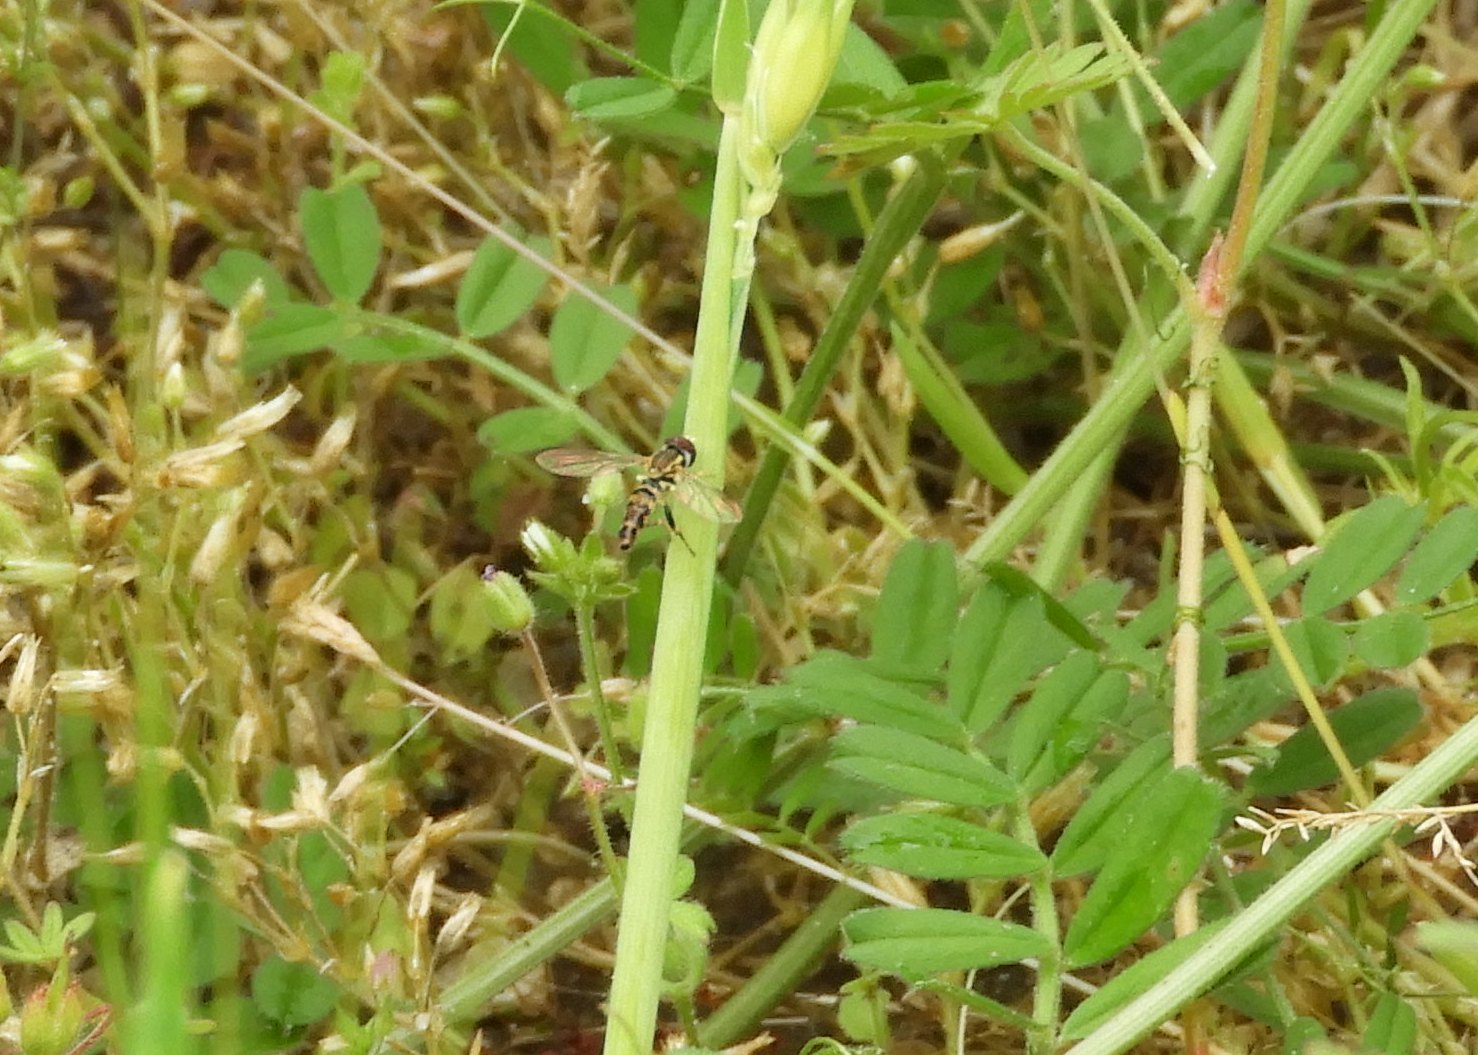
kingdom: Animalia
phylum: Arthropoda
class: Insecta
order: Diptera
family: Syrphidae
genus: Toxomerus
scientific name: Toxomerus geminatus
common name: Eastern calligrapher
